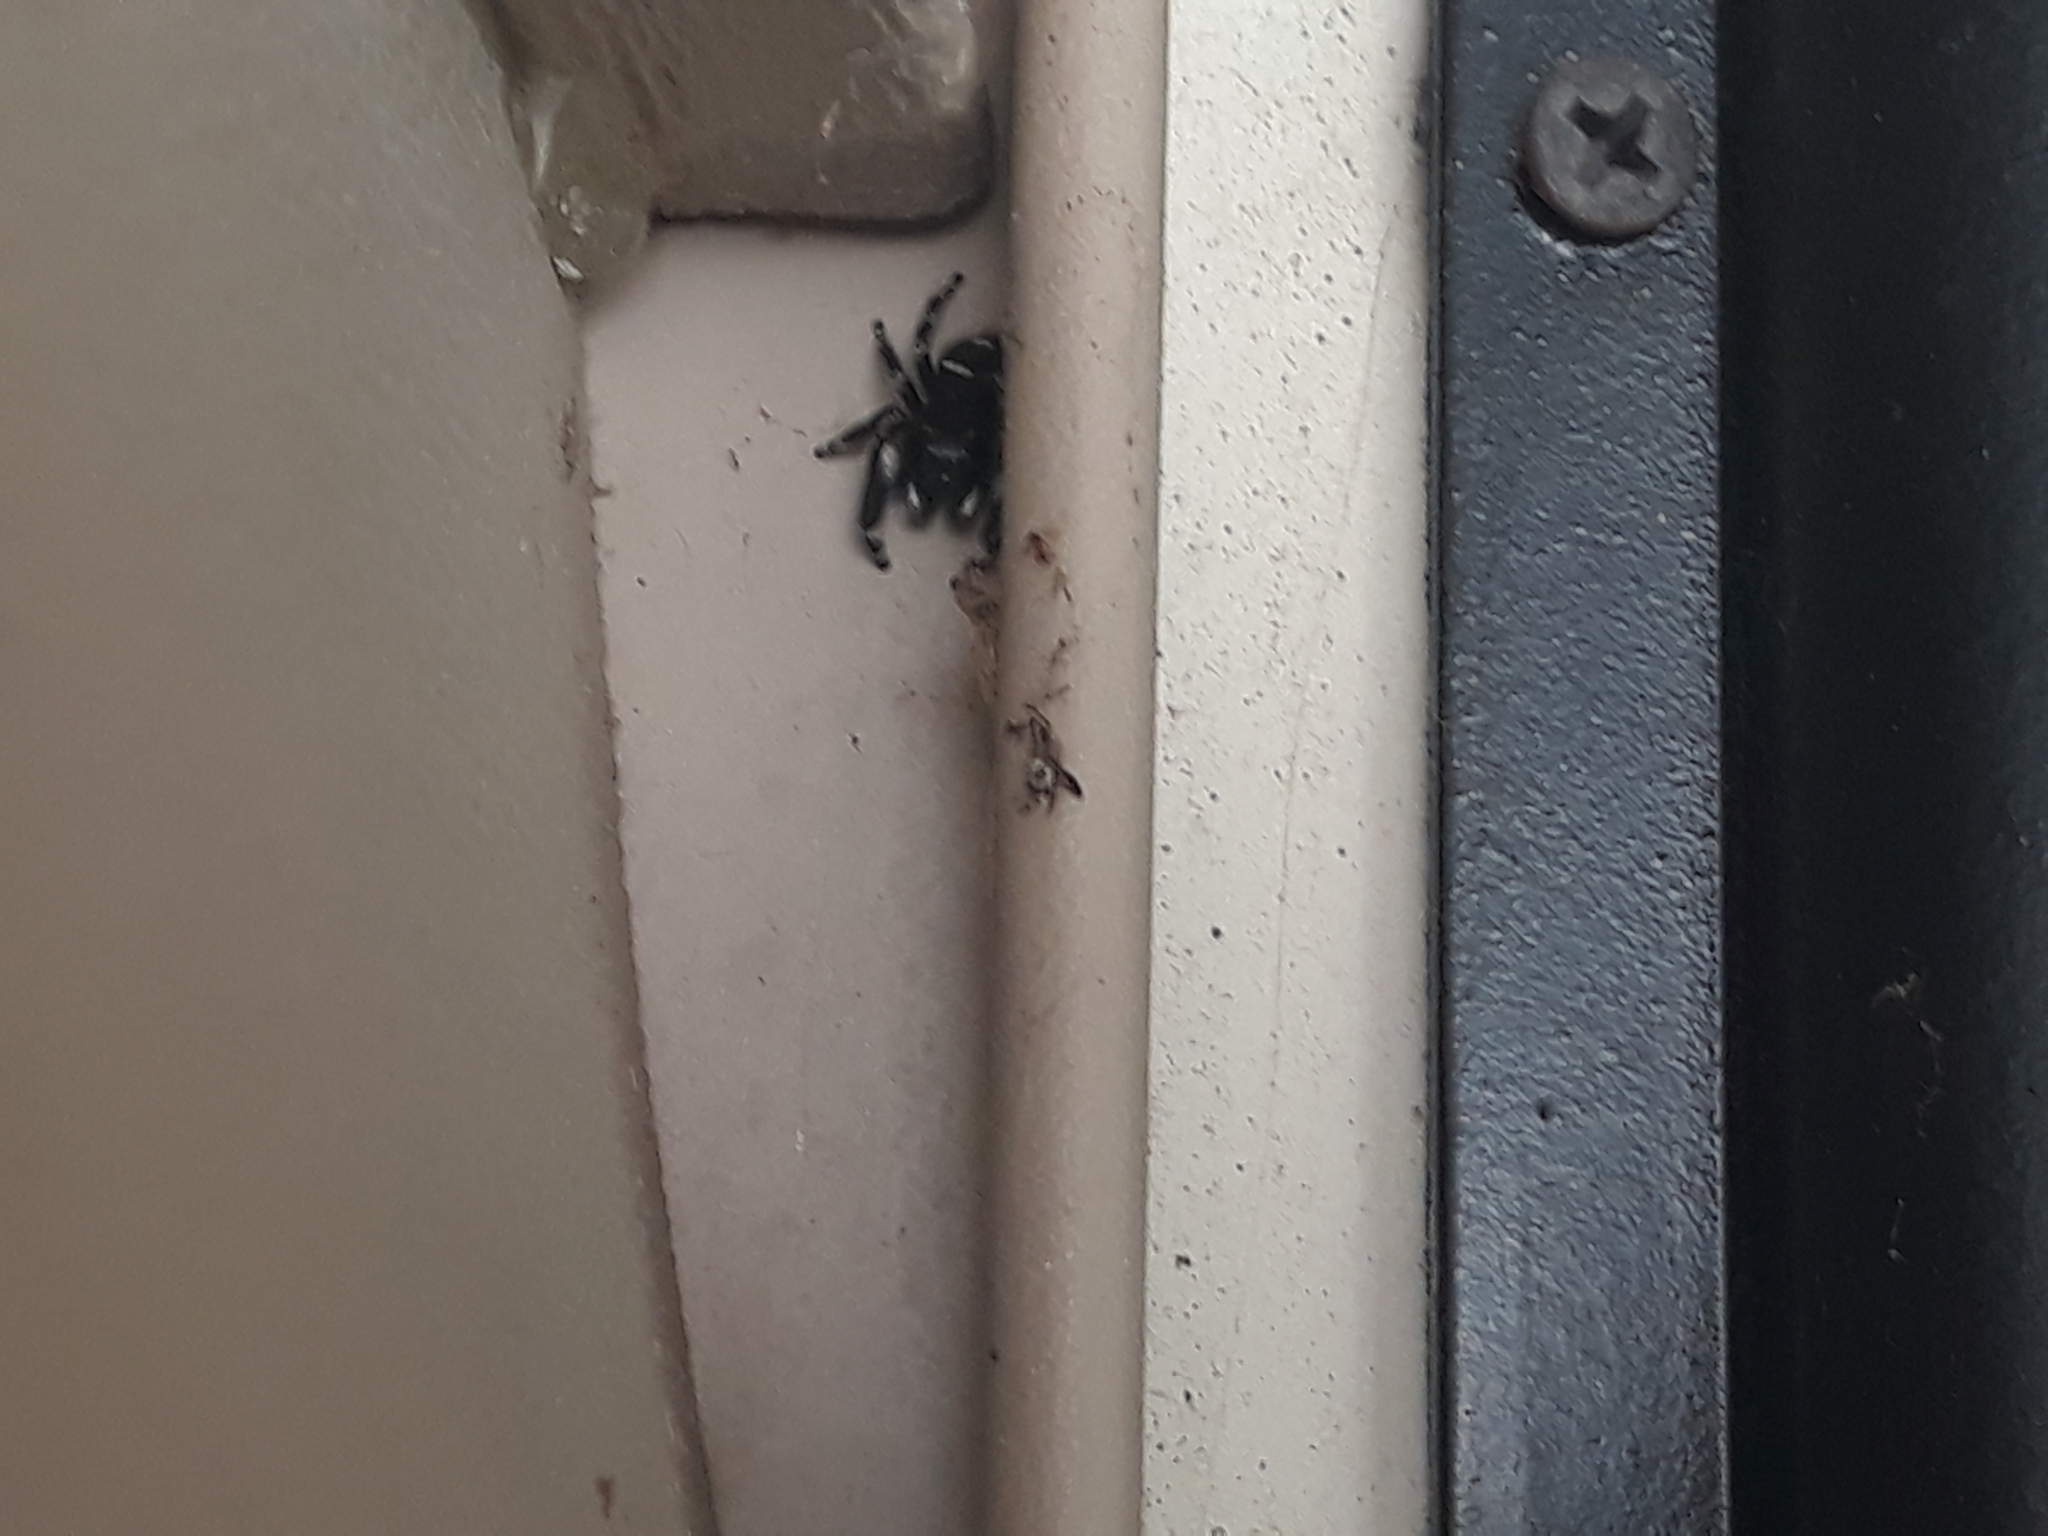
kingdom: Animalia
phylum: Arthropoda
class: Arachnida
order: Araneae
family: Salticidae
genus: Phidippus
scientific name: Phidippus audax
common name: Bold jumper
